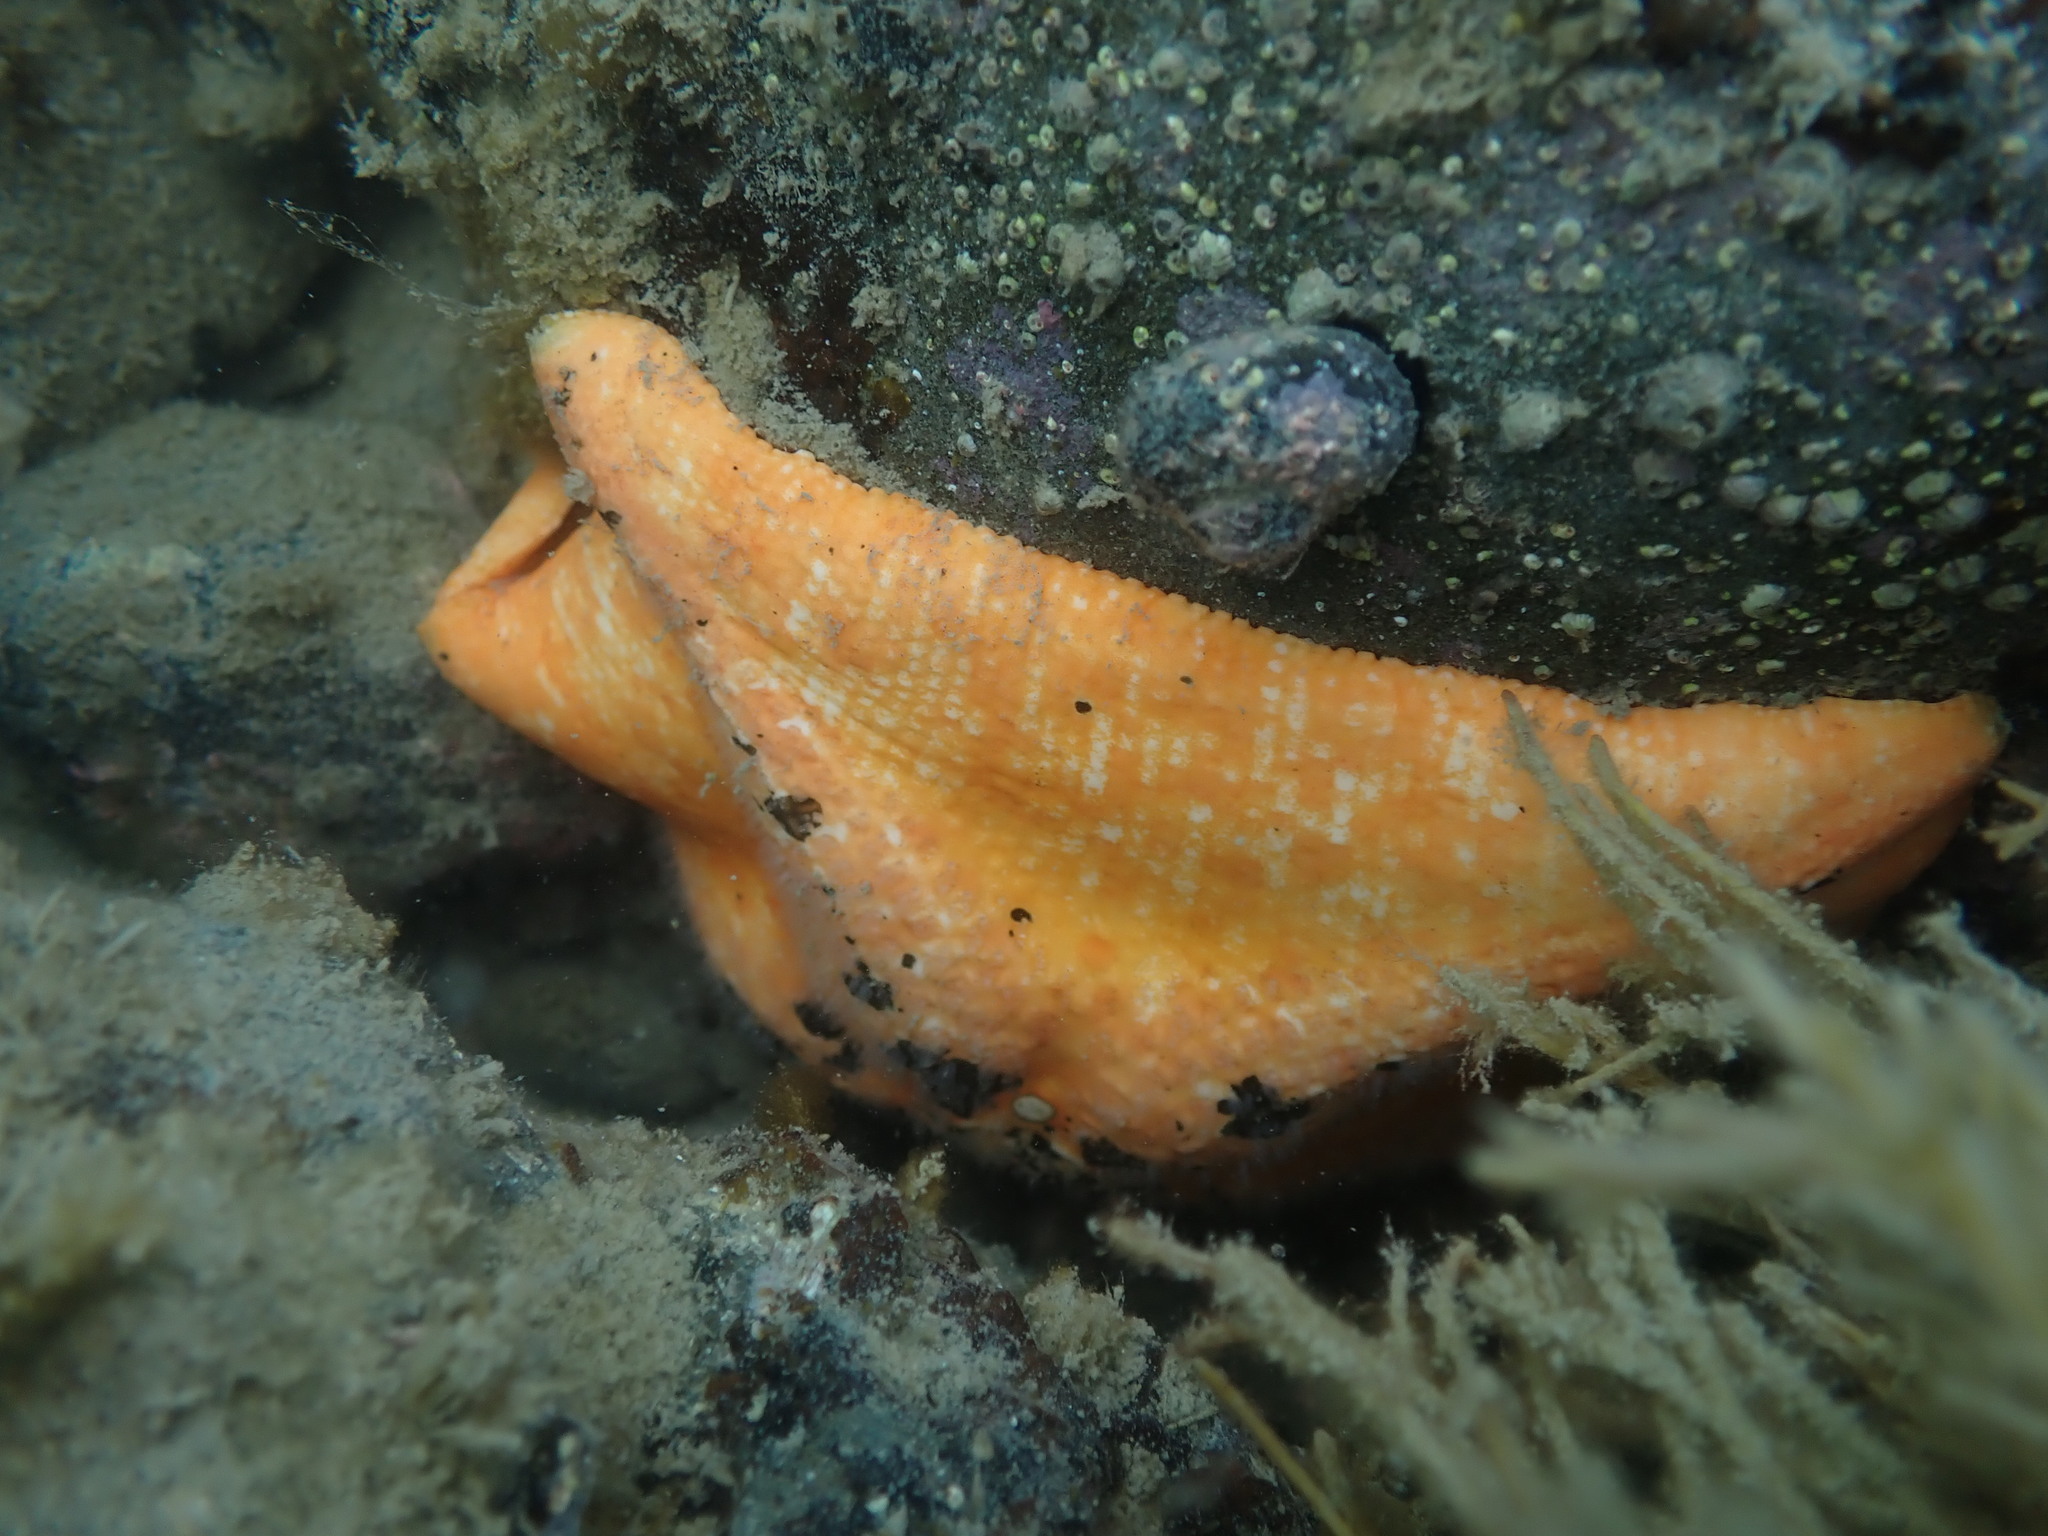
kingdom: Animalia
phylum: Echinodermata
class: Asteroidea
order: Valvatida
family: Asterinidae
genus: Stegnaster
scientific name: Stegnaster inflatus
